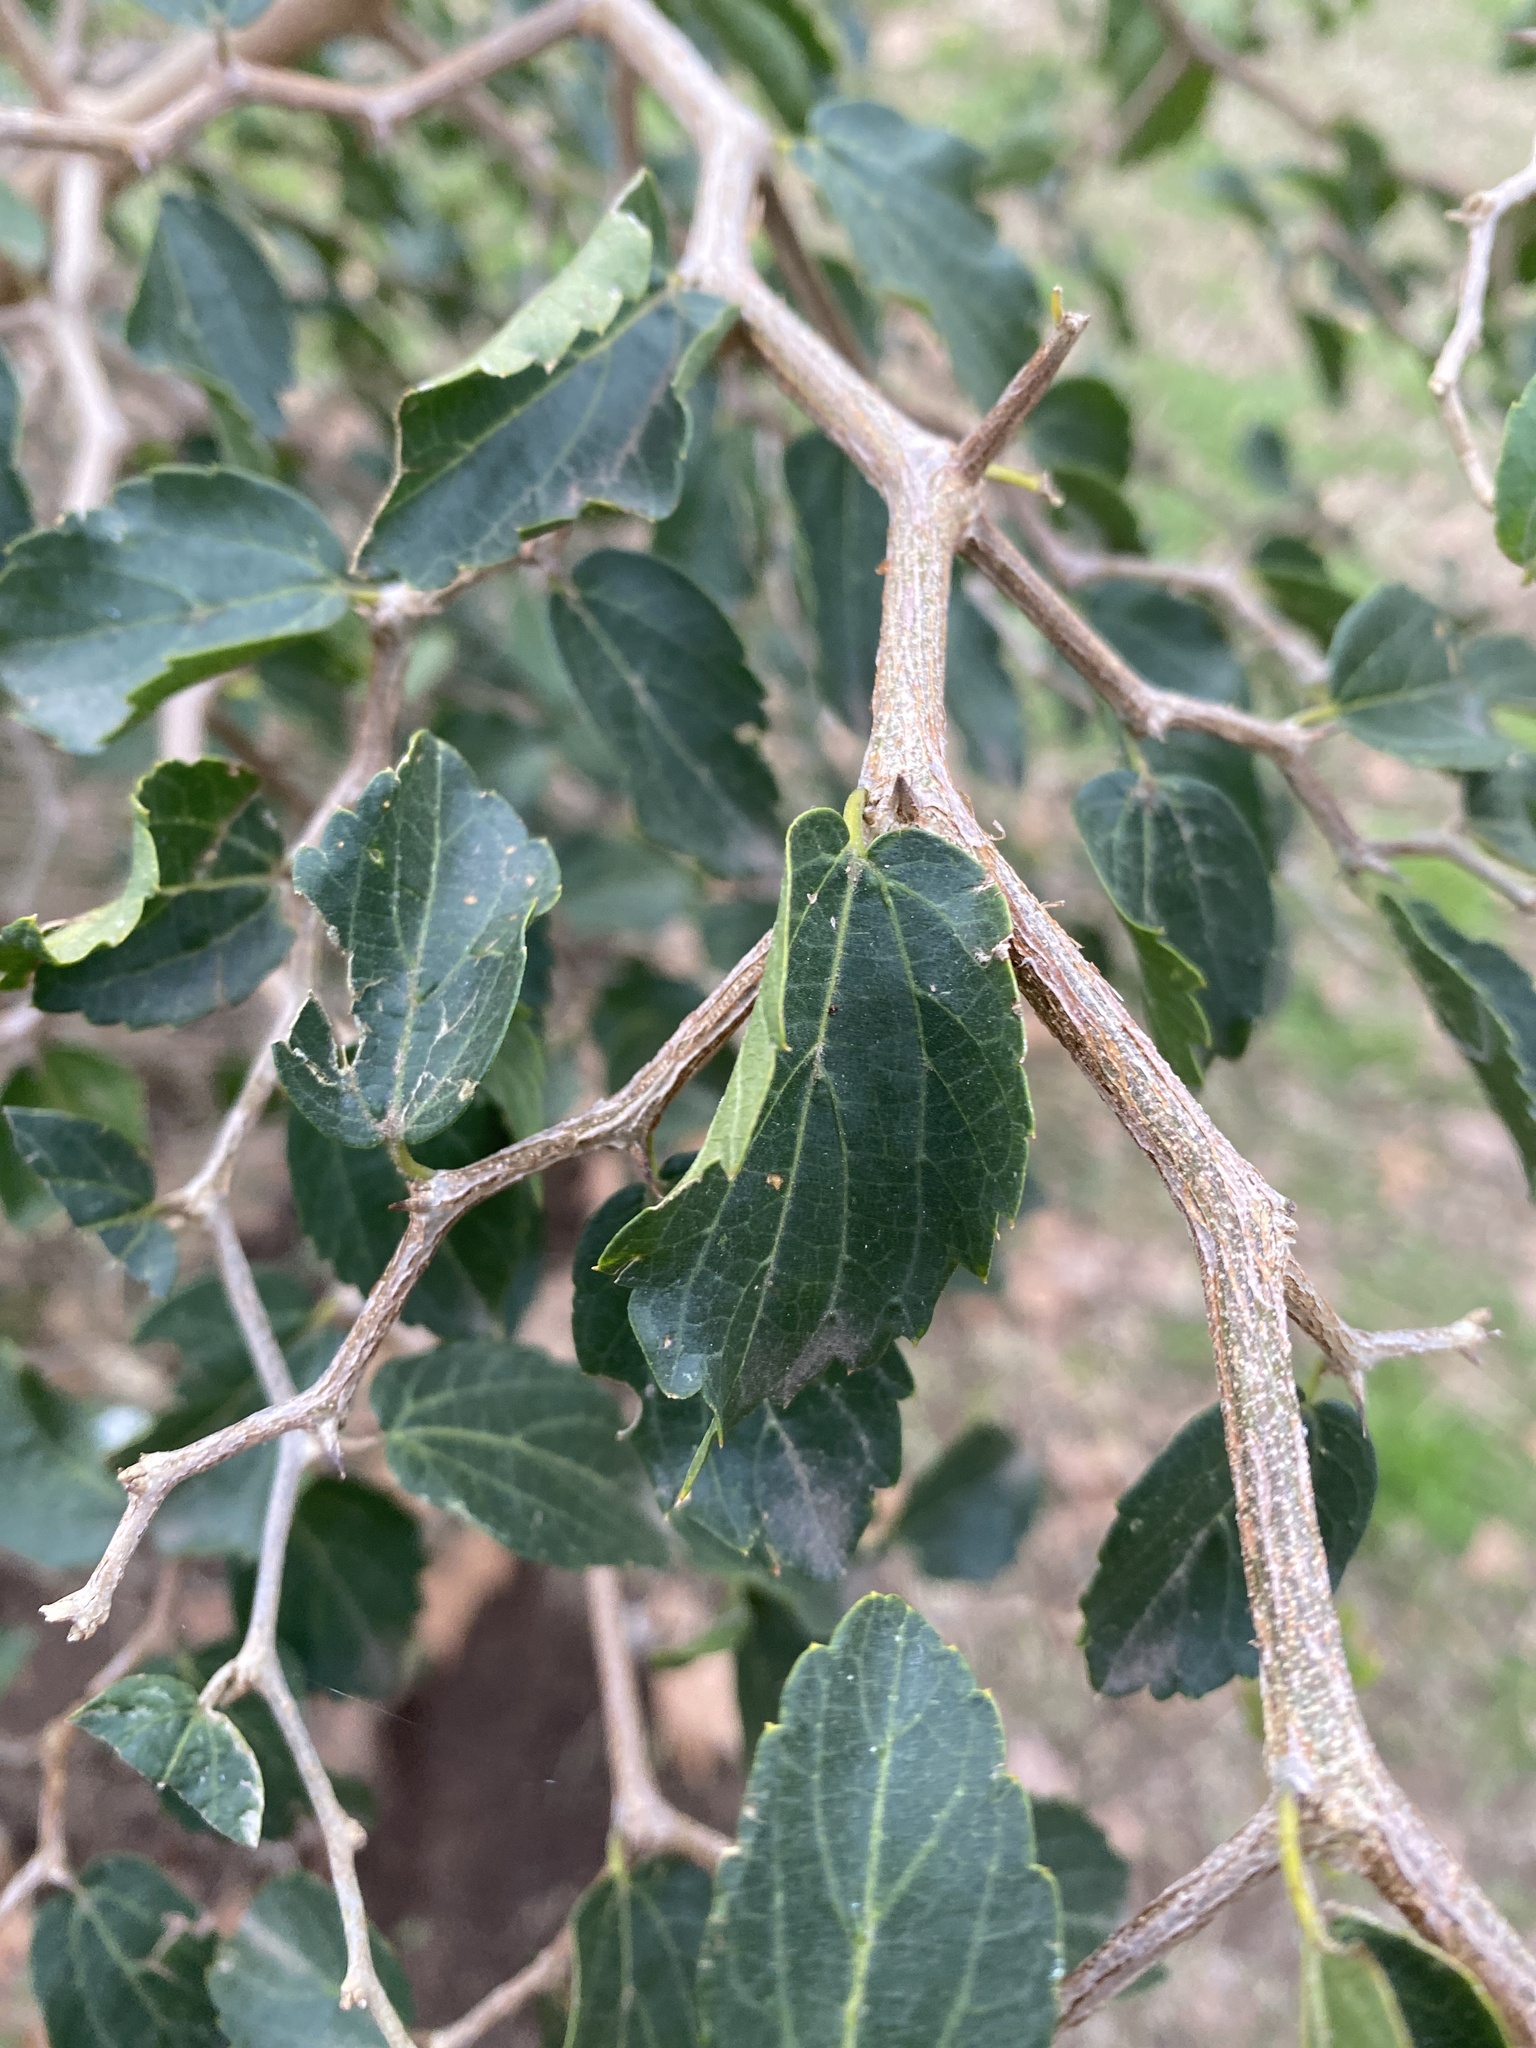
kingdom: Plantae
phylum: Tracheophyta
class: Magnoliopsida
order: Rosales
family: Cannabaceae
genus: Celtis
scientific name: Celtis tala
